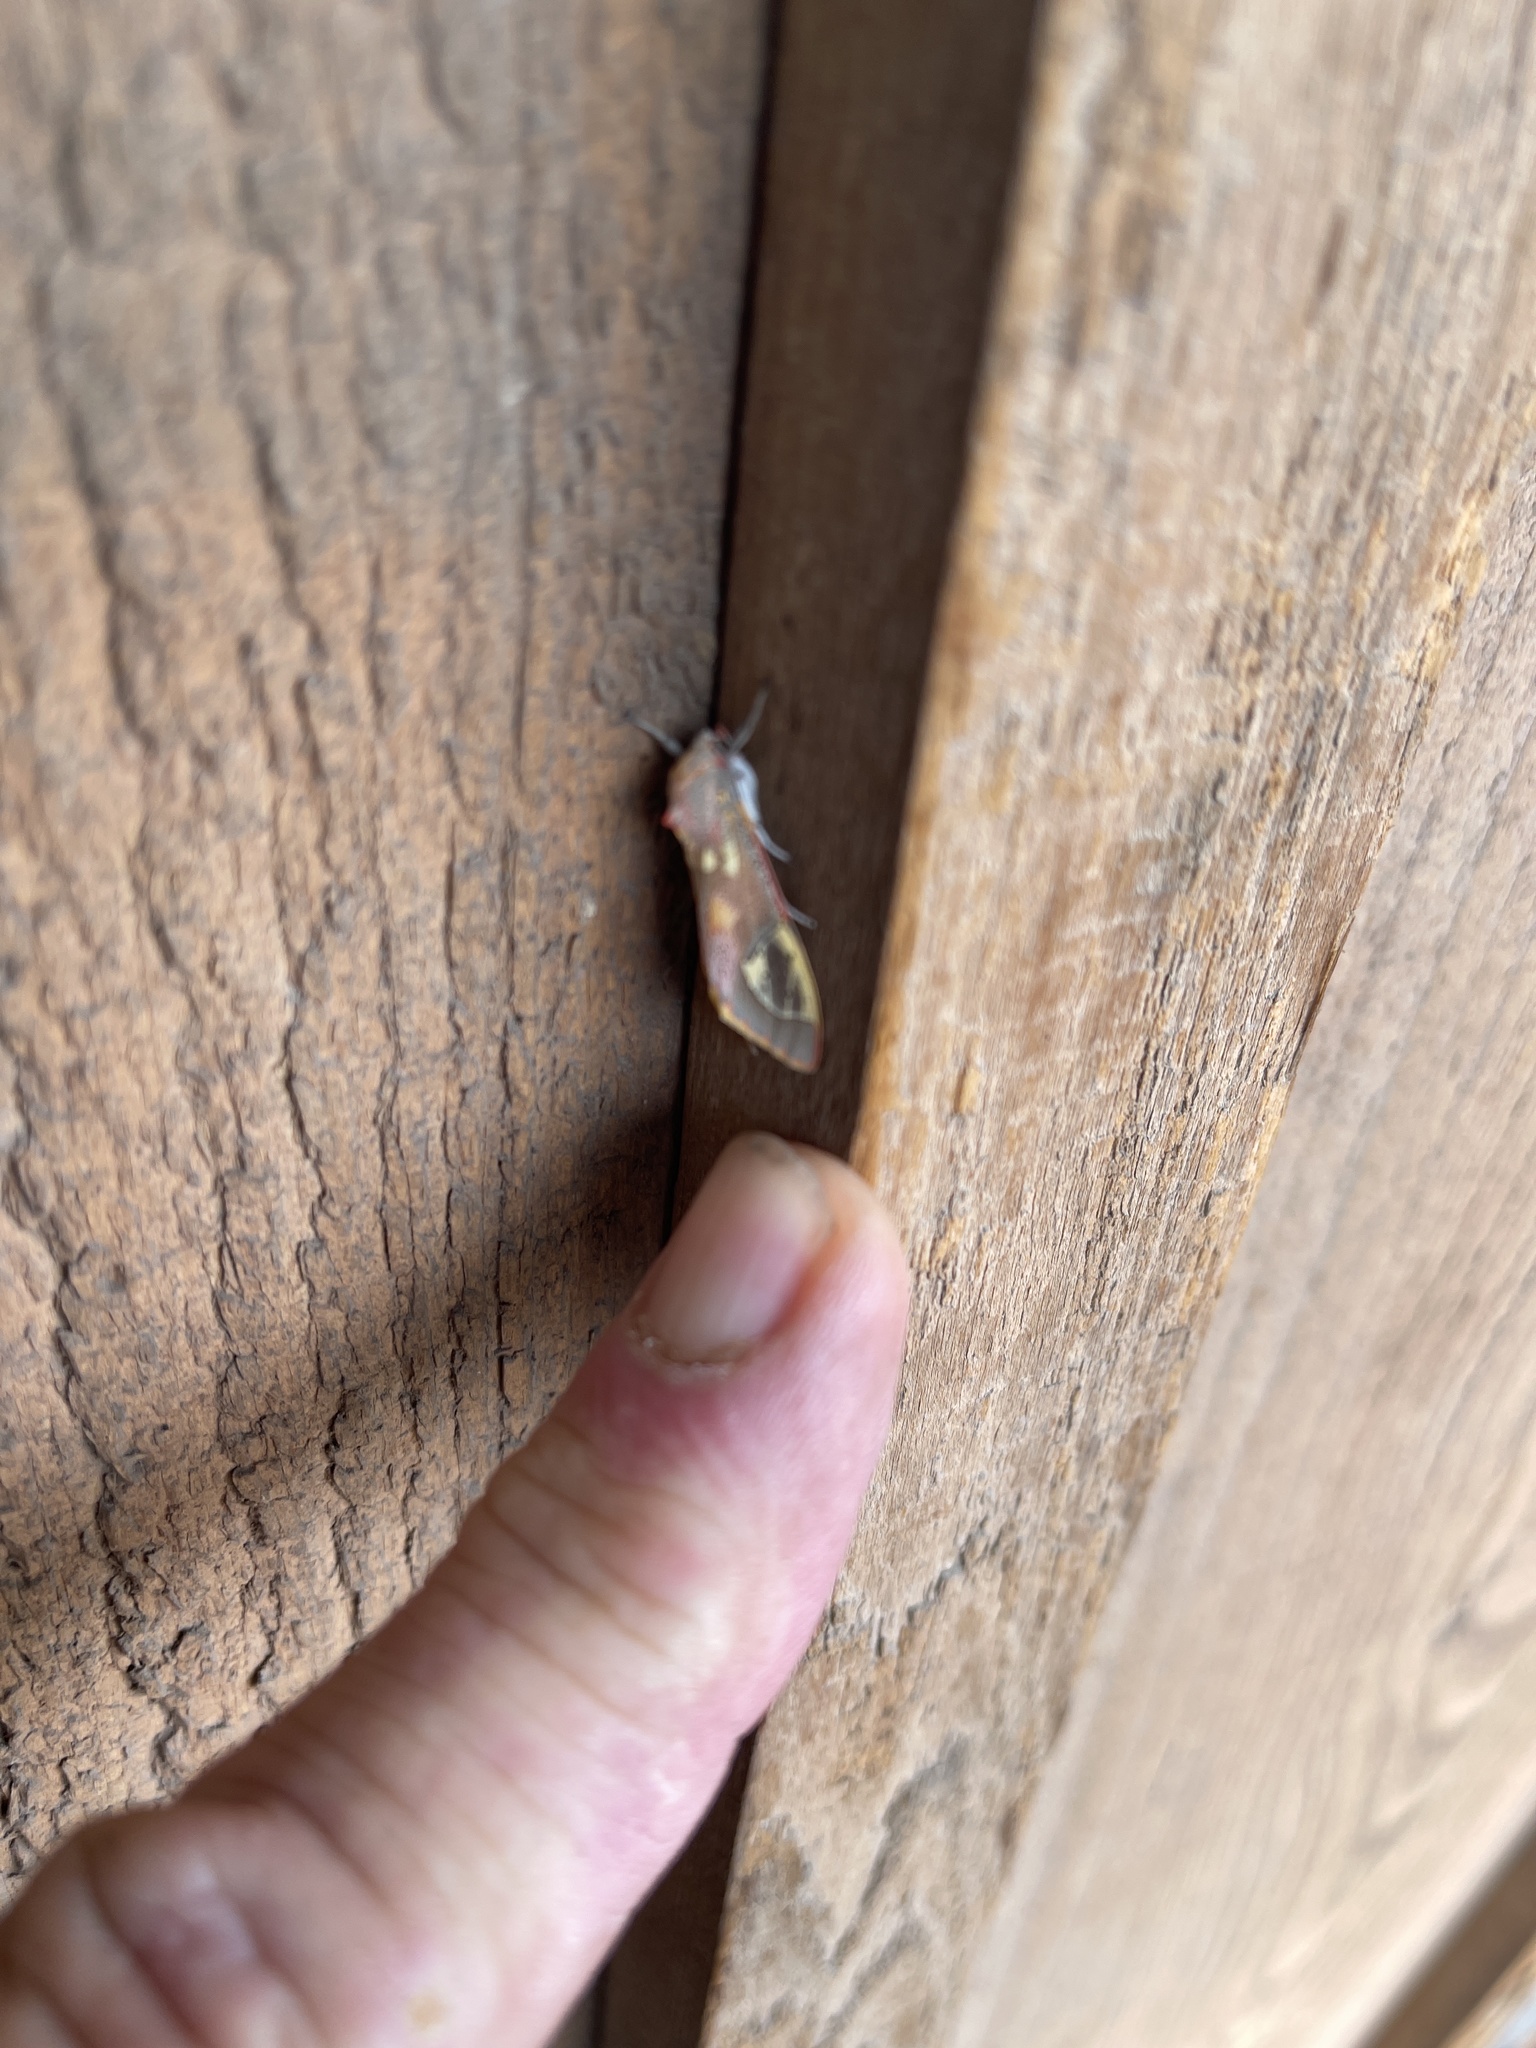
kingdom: Animalia
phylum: Arthropoda
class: Insecta
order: Lepidoptera
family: Erebidae
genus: Bertholdia
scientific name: Bertholdia trigona
